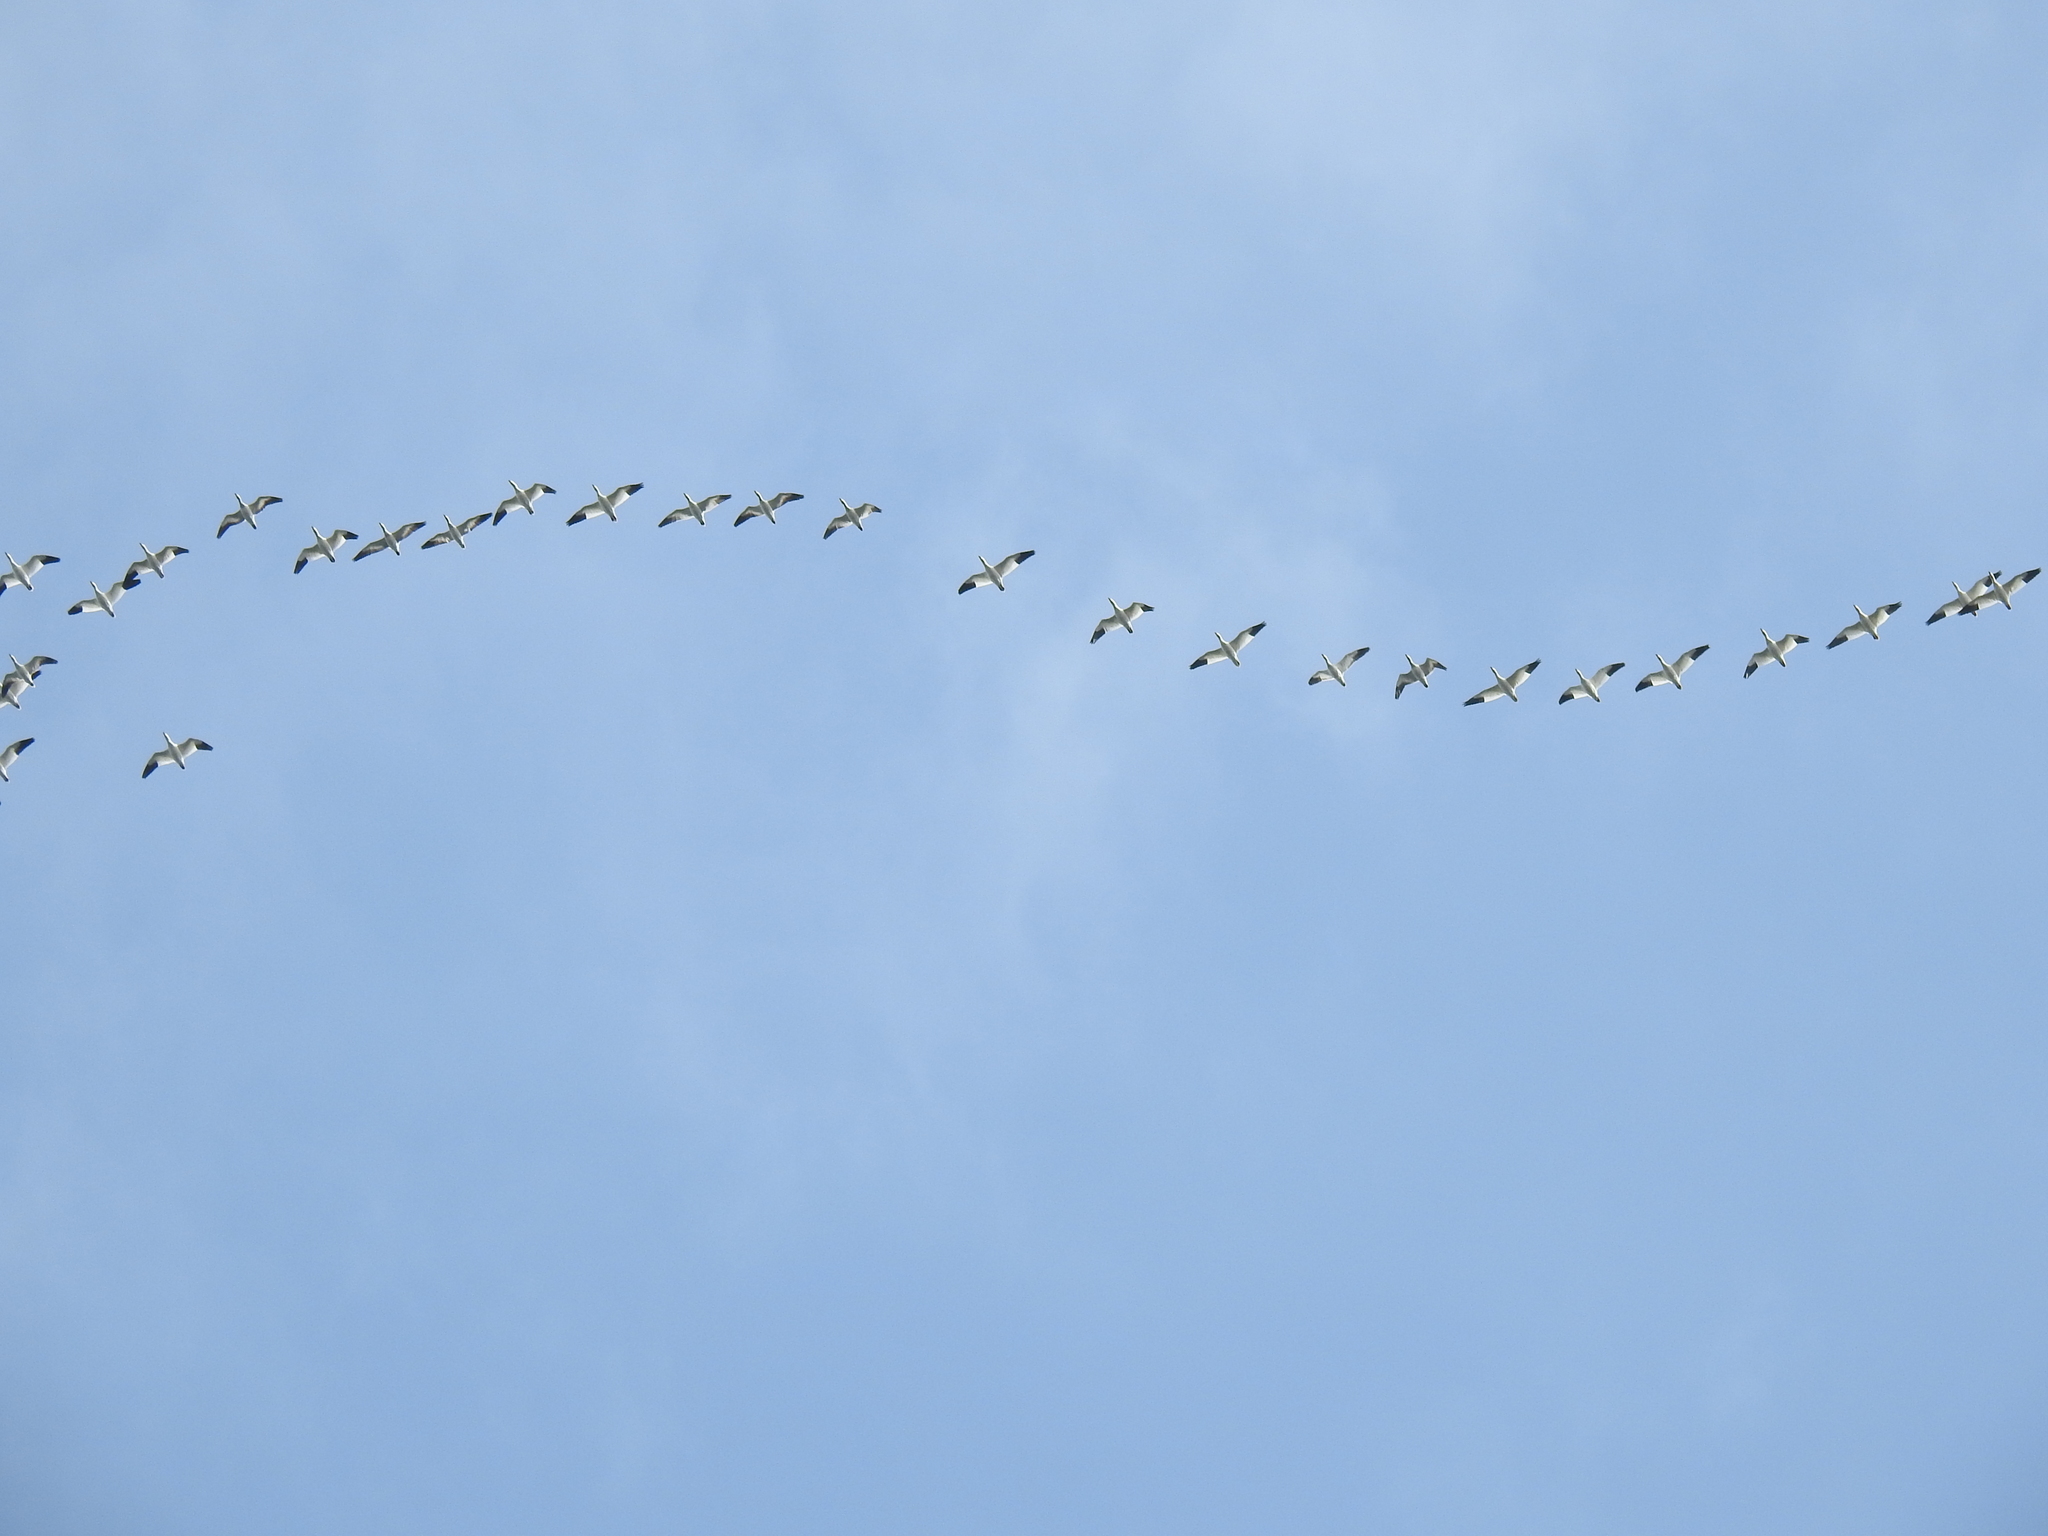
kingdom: Animalia
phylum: Chordata
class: Aves
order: Anseriformes
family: Anatidae
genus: Anser
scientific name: Anser caerulescens
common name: Snow goose
